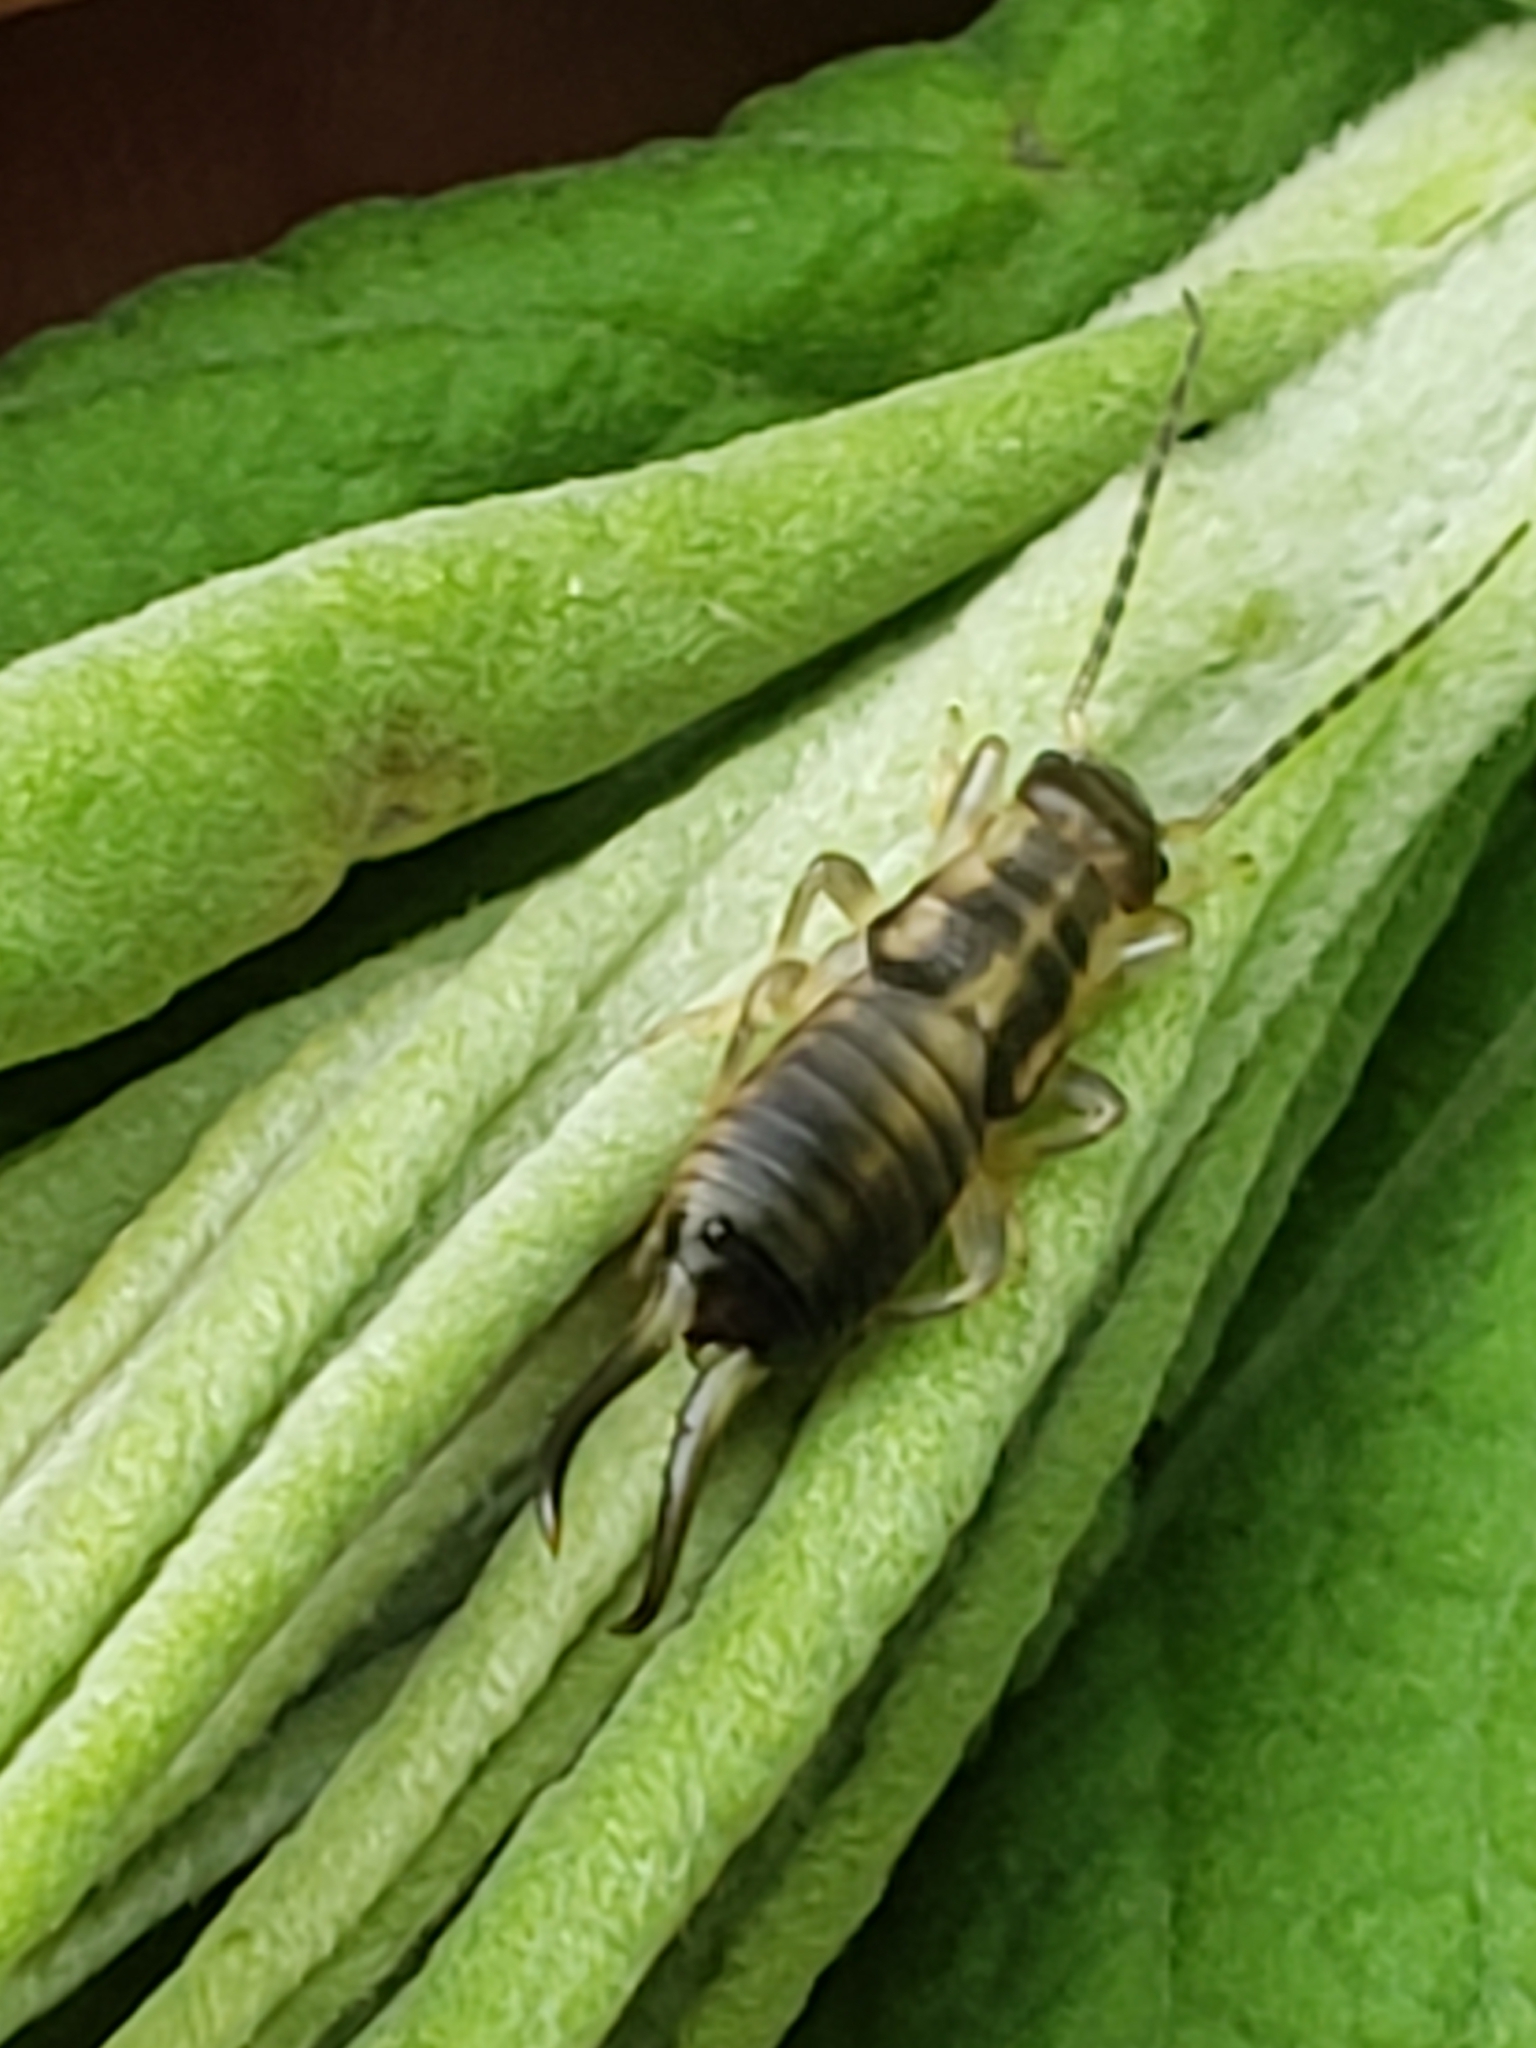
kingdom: Animalia
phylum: Arthropoda
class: Insecta
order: Dermaptera
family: Forficulidae
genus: Forficula
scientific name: Forficula
